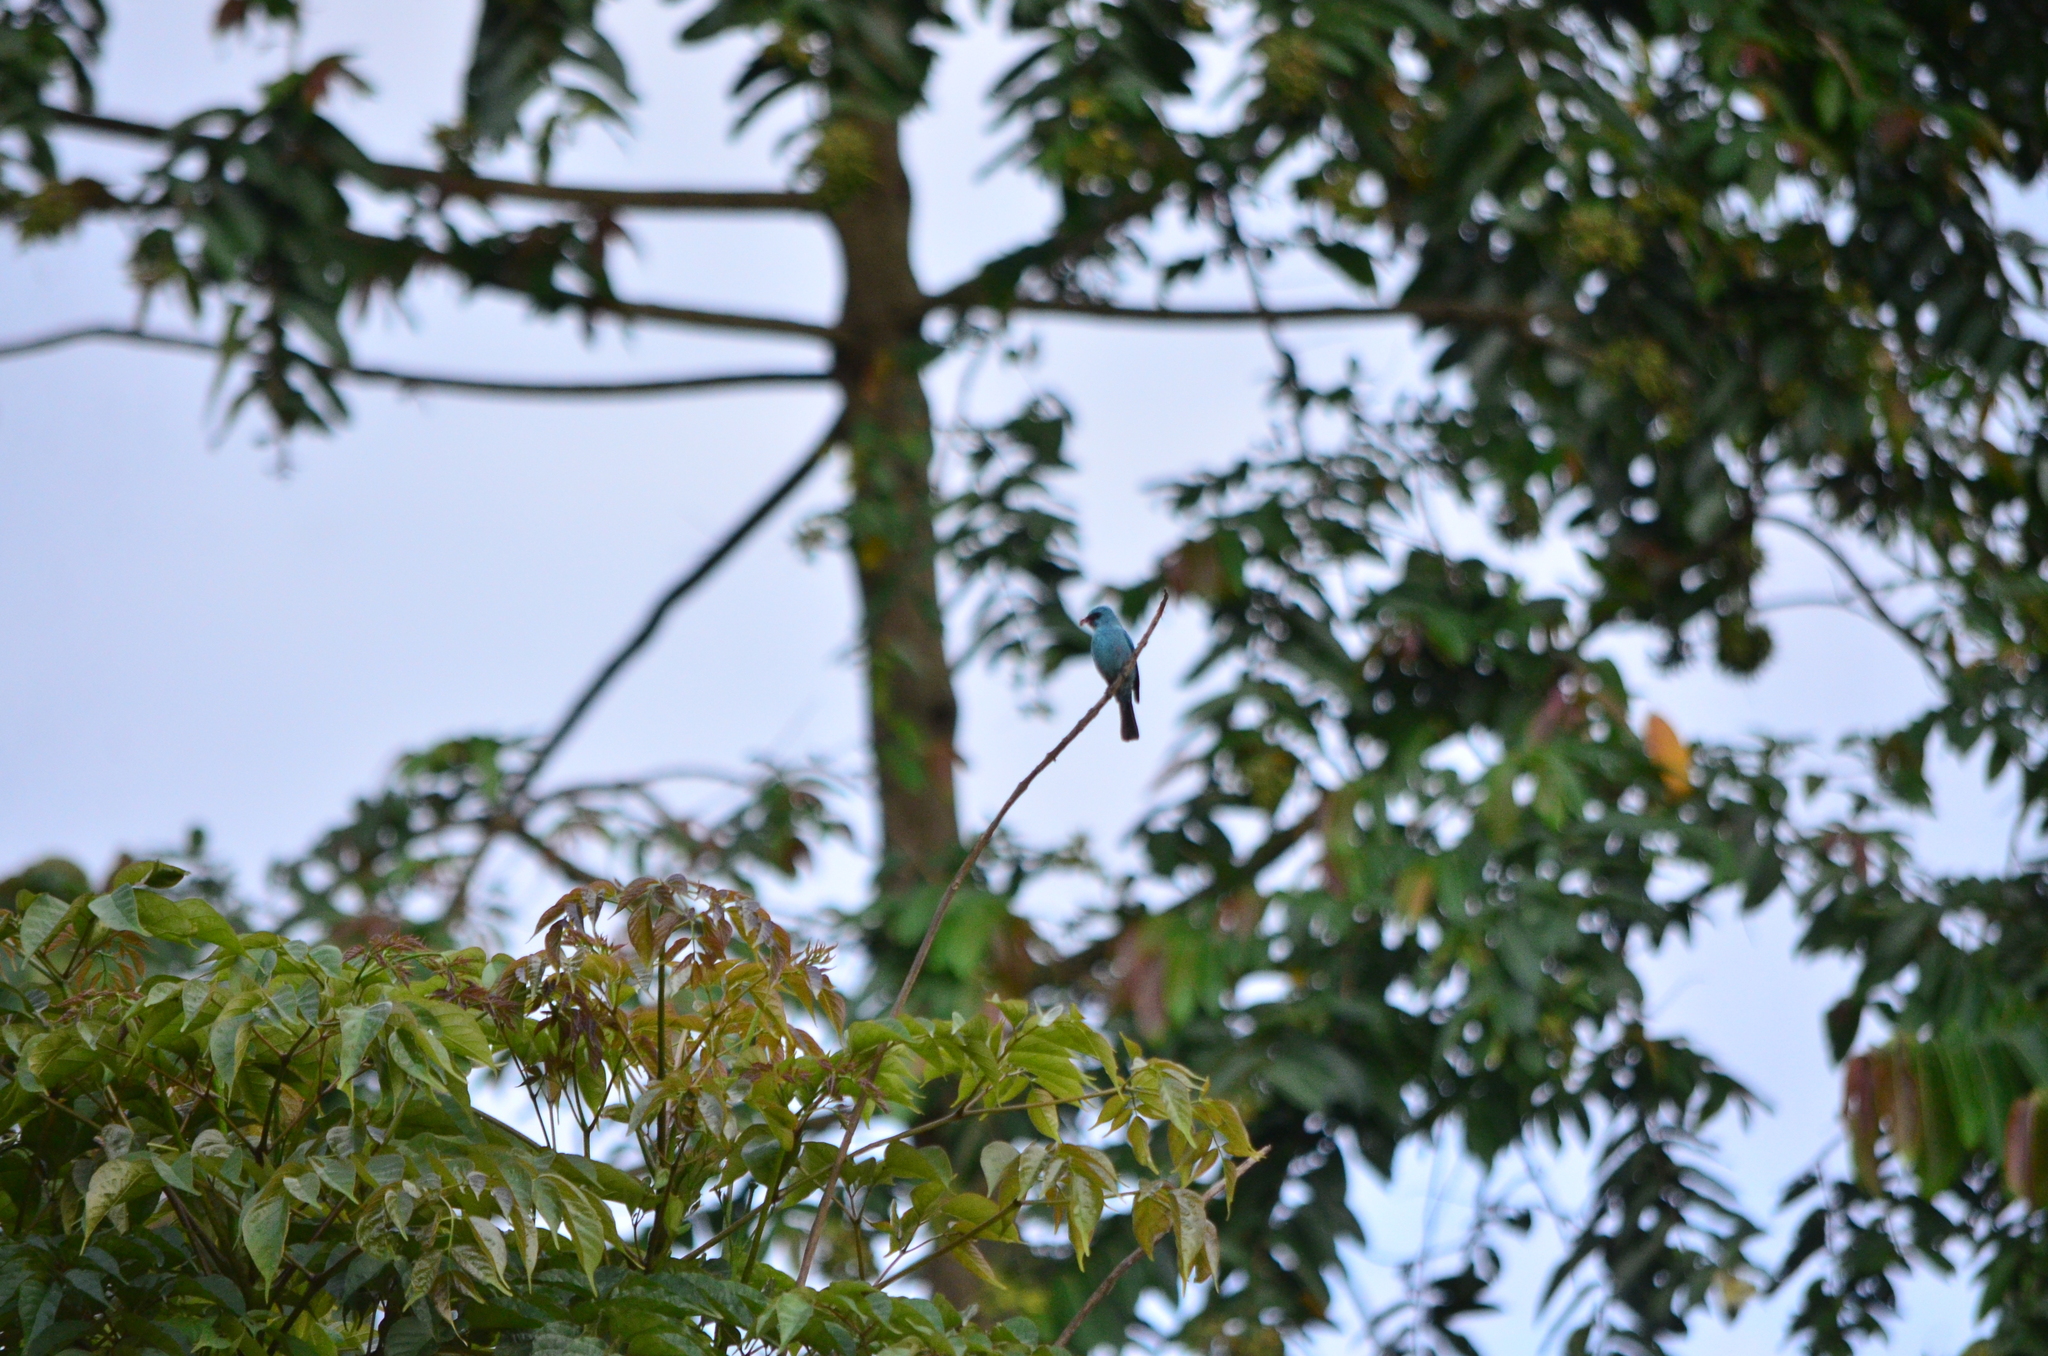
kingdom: Animalia
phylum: Chordata
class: Aves
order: Passeriformes
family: Muscicapidae
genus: Eumyias
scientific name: Eumyias thalassinus
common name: Verditer flycatcher
